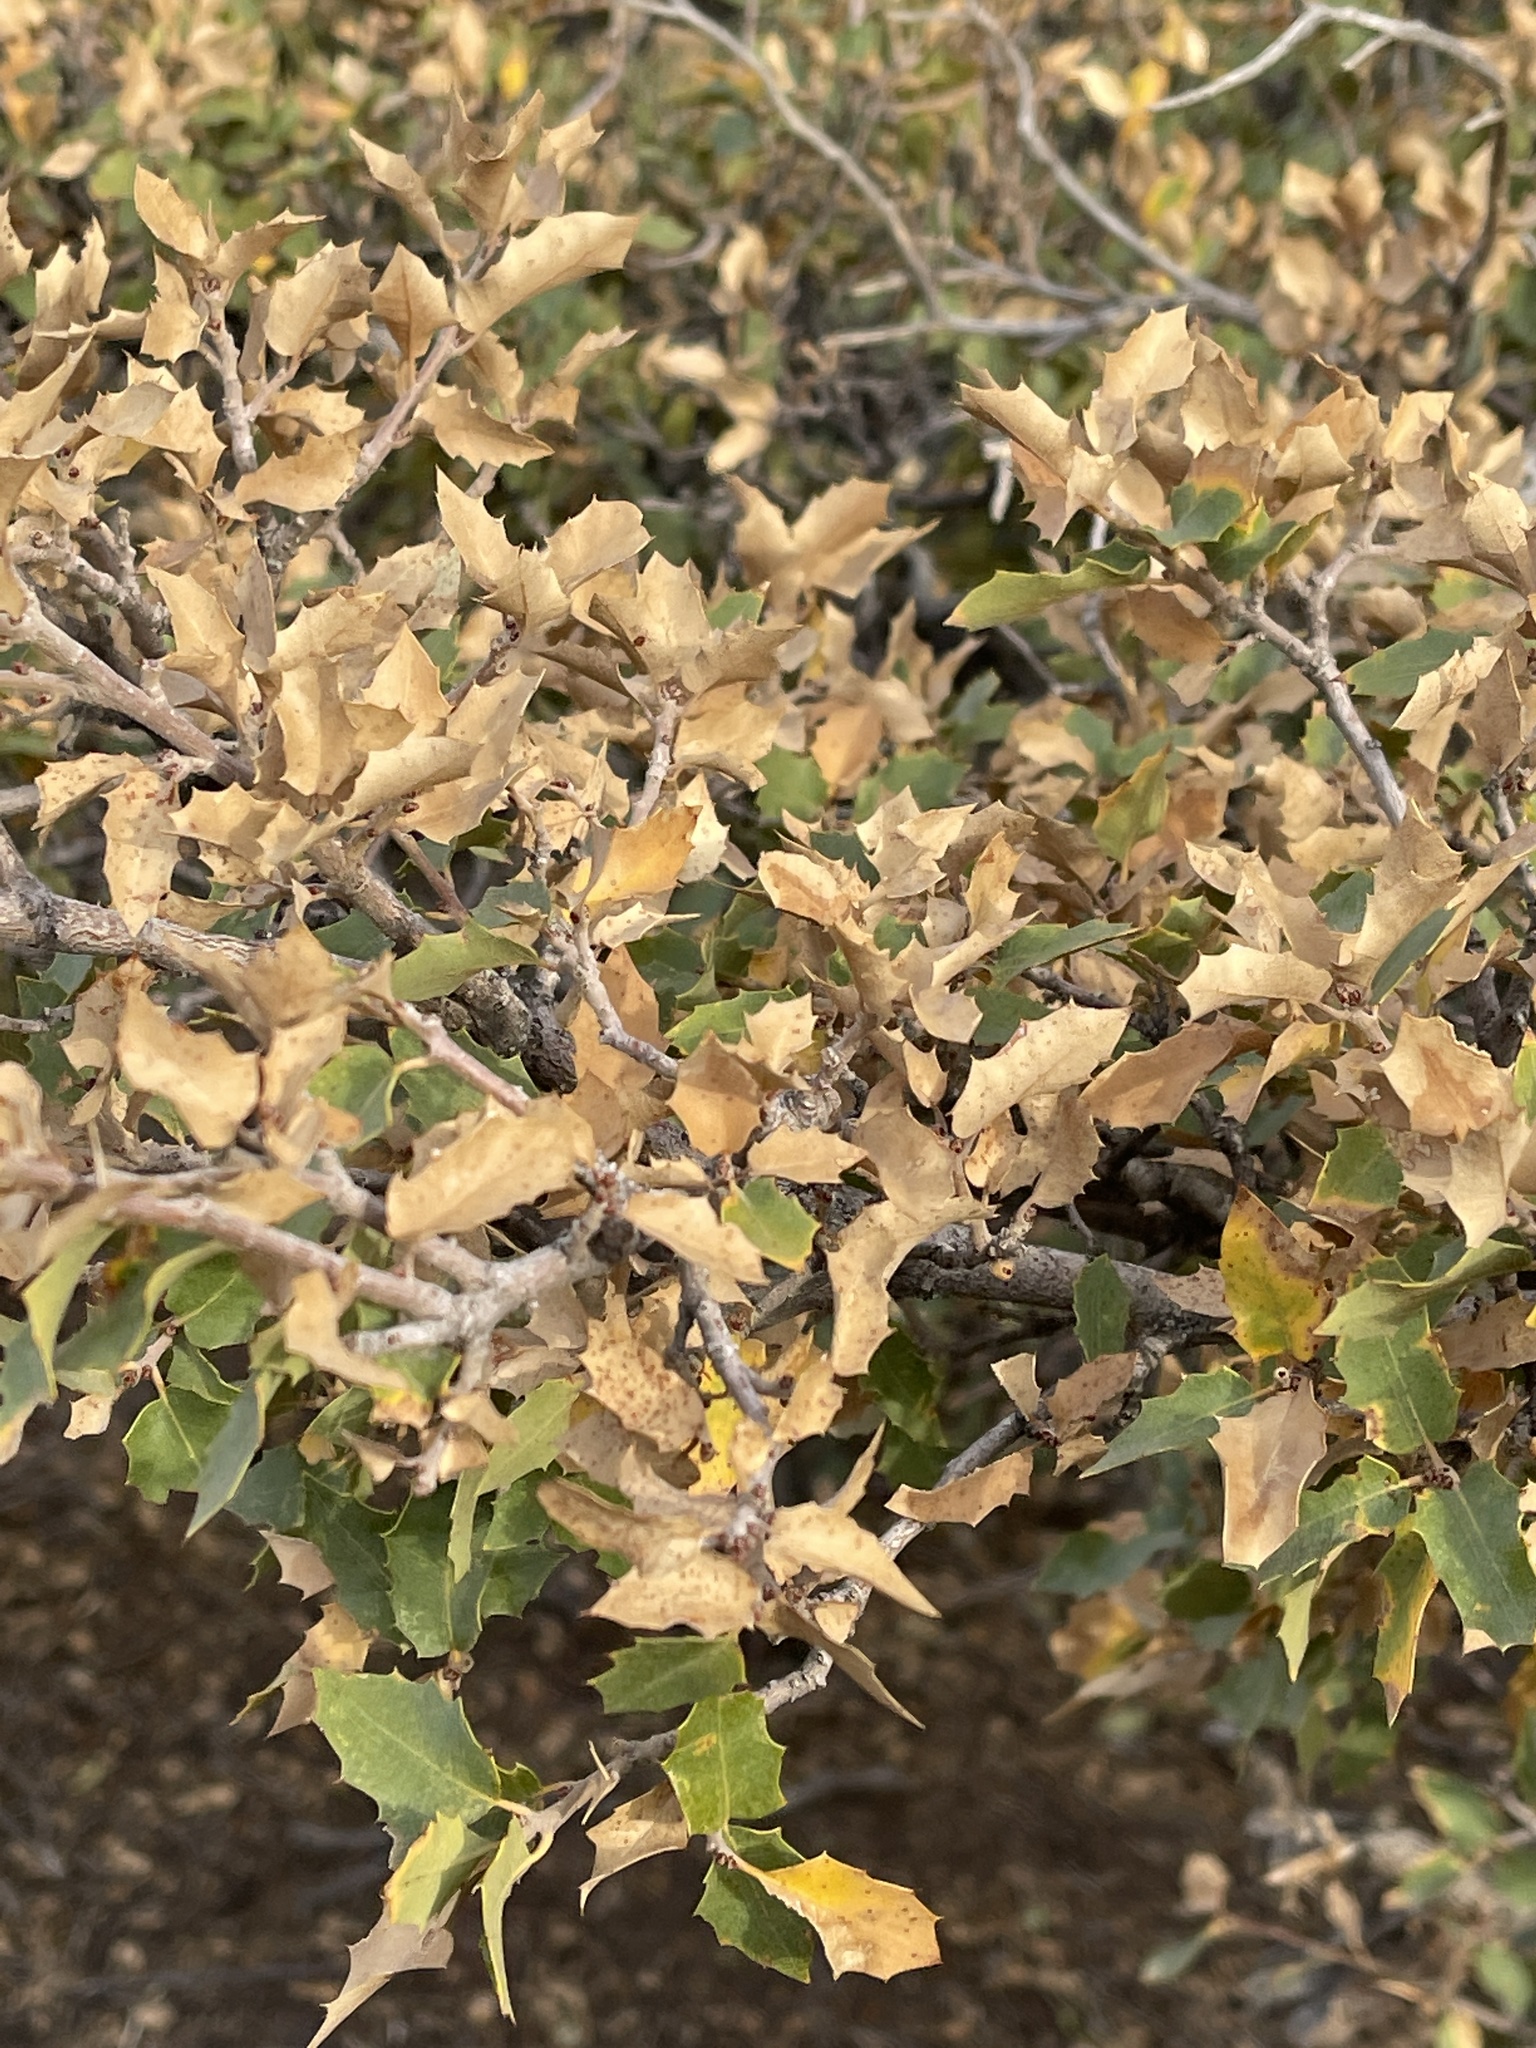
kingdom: Plantae
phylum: Tracheophyta
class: Magnoliopsida
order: Fagales
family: Fagaceae
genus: Quercus
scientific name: Quercus turbinella
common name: Sonoran scrub oak
